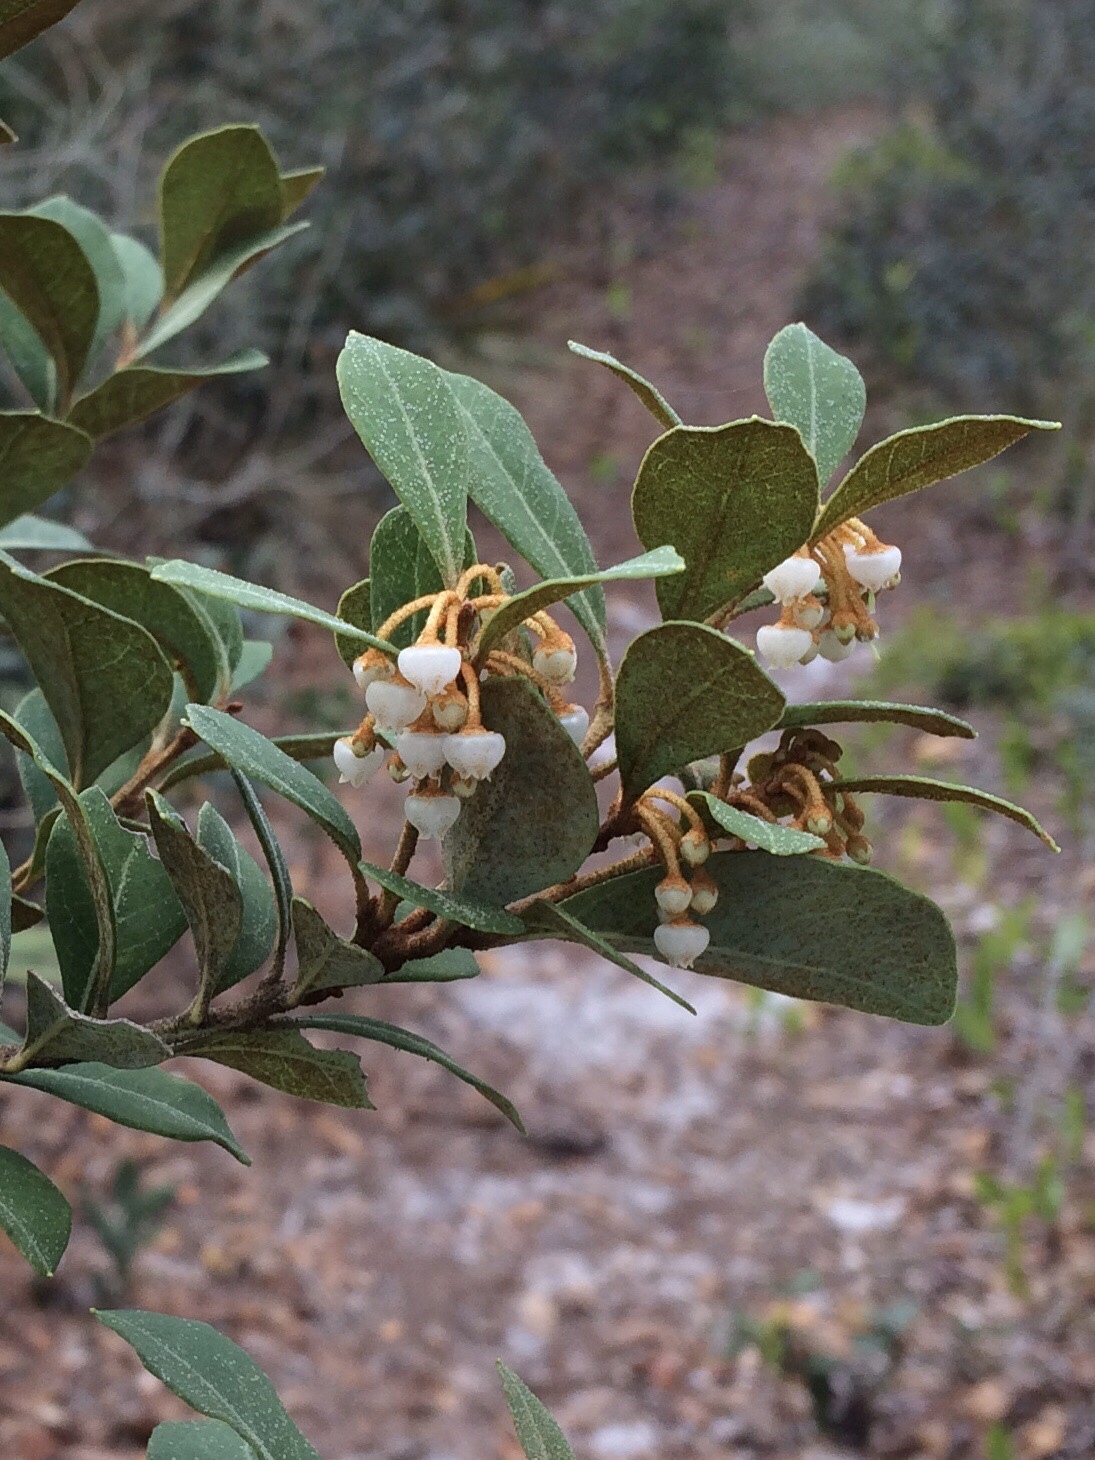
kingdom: Plantae
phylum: Tracheophyta
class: Magnoliopsida
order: Ericales
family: Ericaceae
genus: Lyonia
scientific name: Lyonia fruticosa
